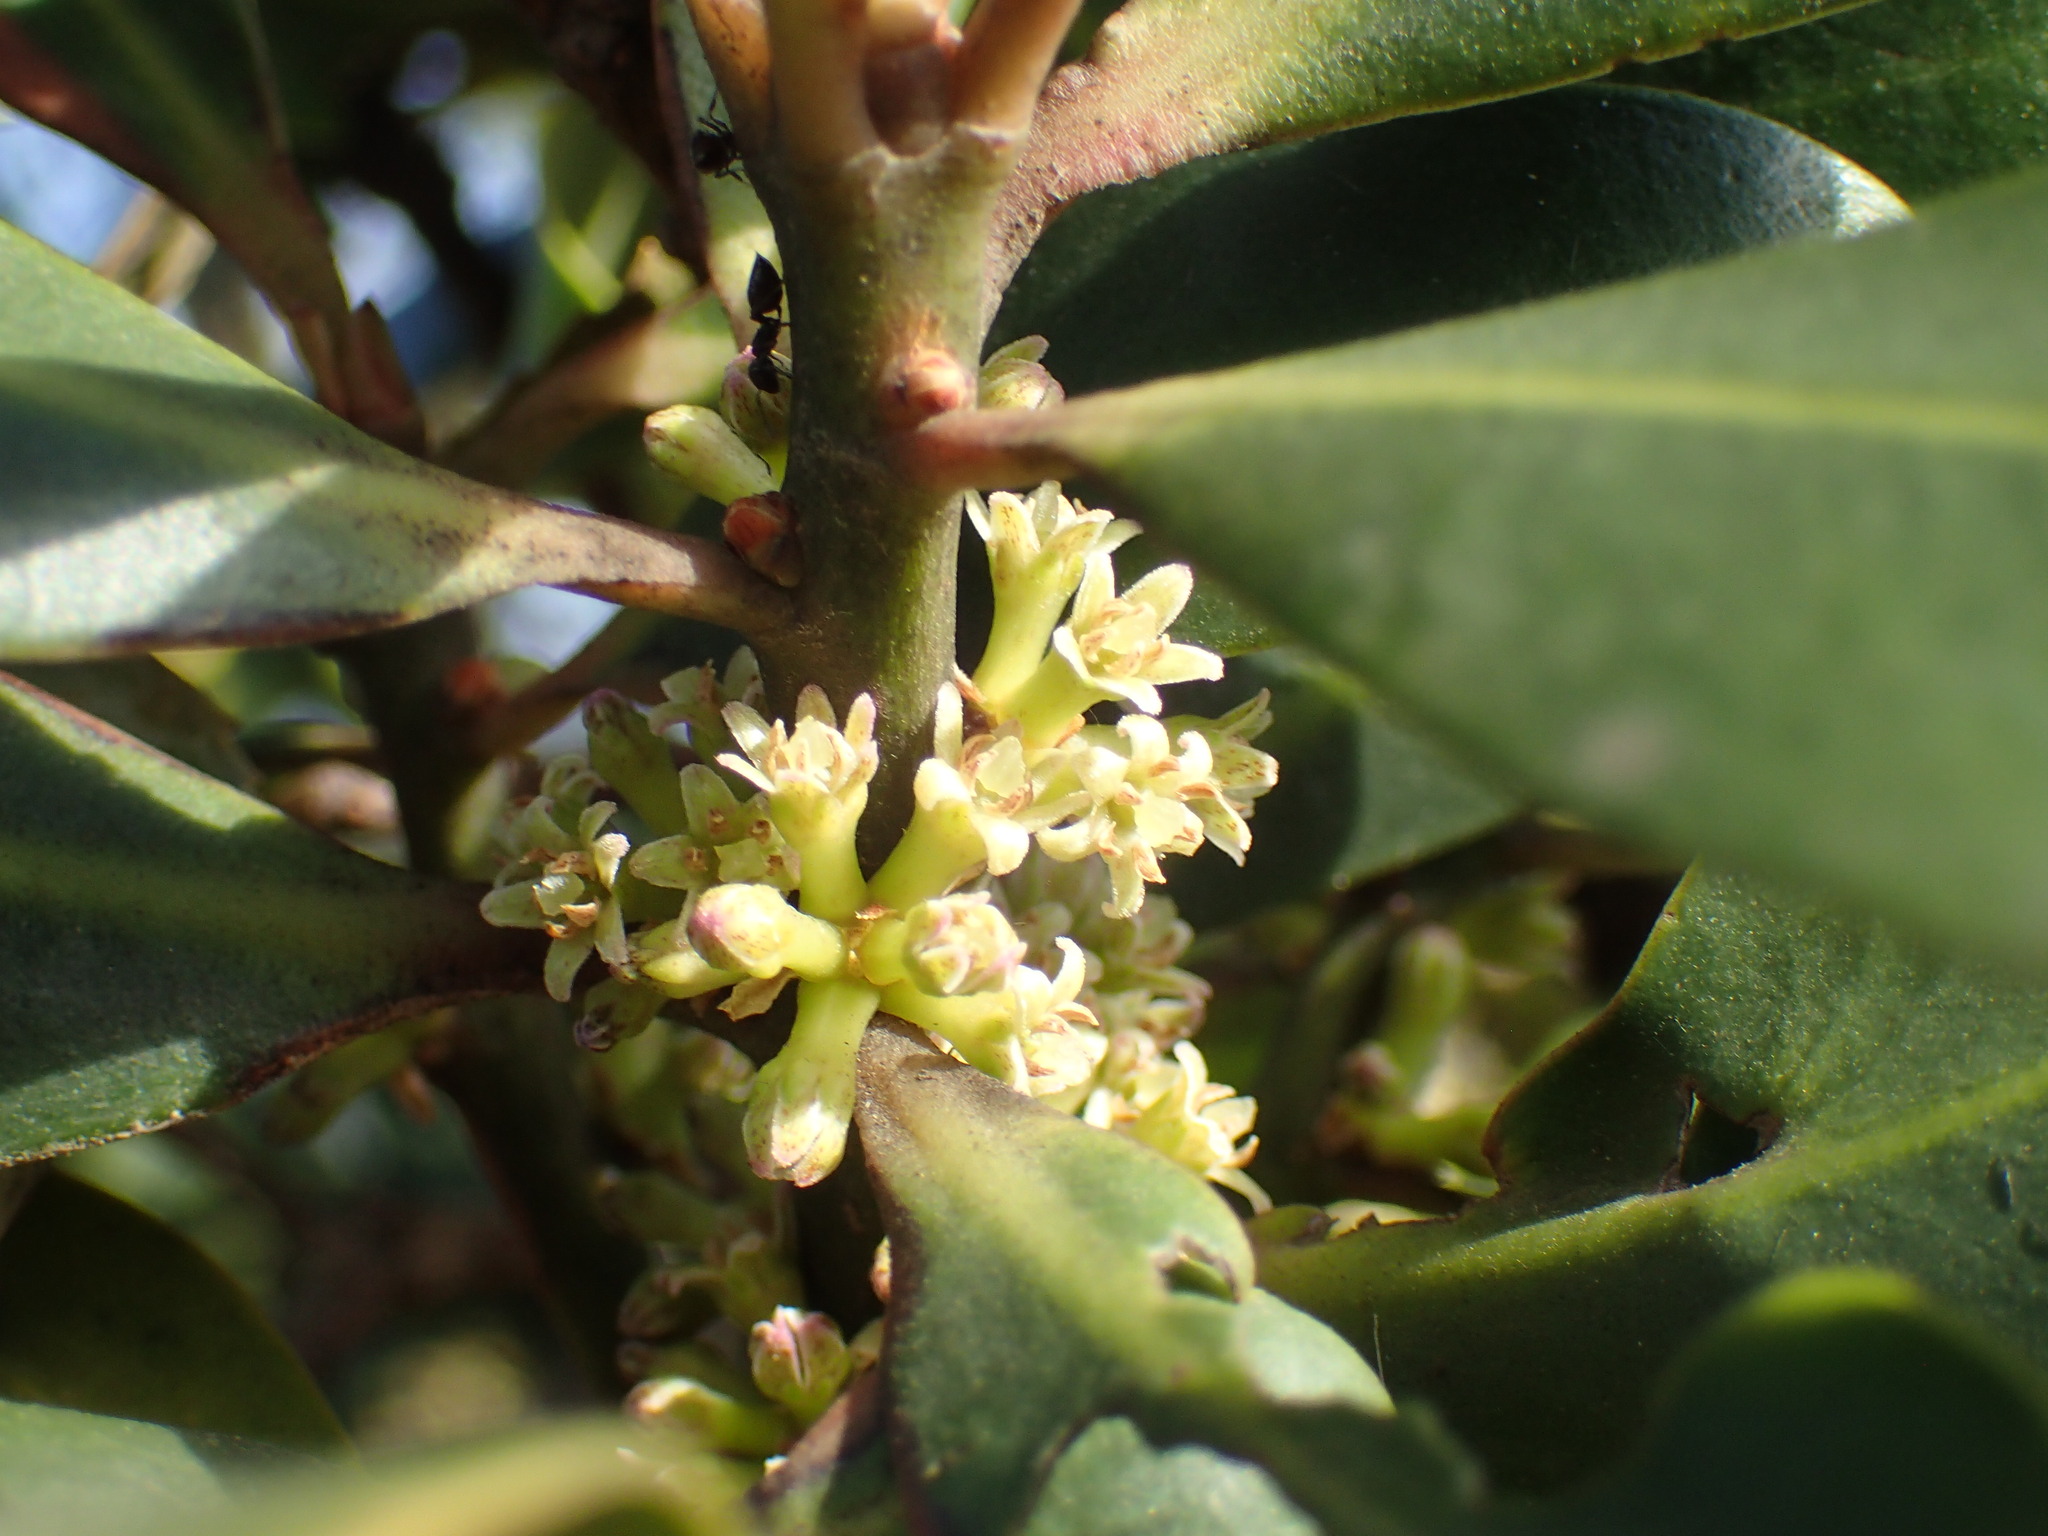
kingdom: Plantae
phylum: Tracheophyta
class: Magnoliopsida
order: Ericales
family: Primulaceae
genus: Myrsine
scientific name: Myrsine melanophloeos
